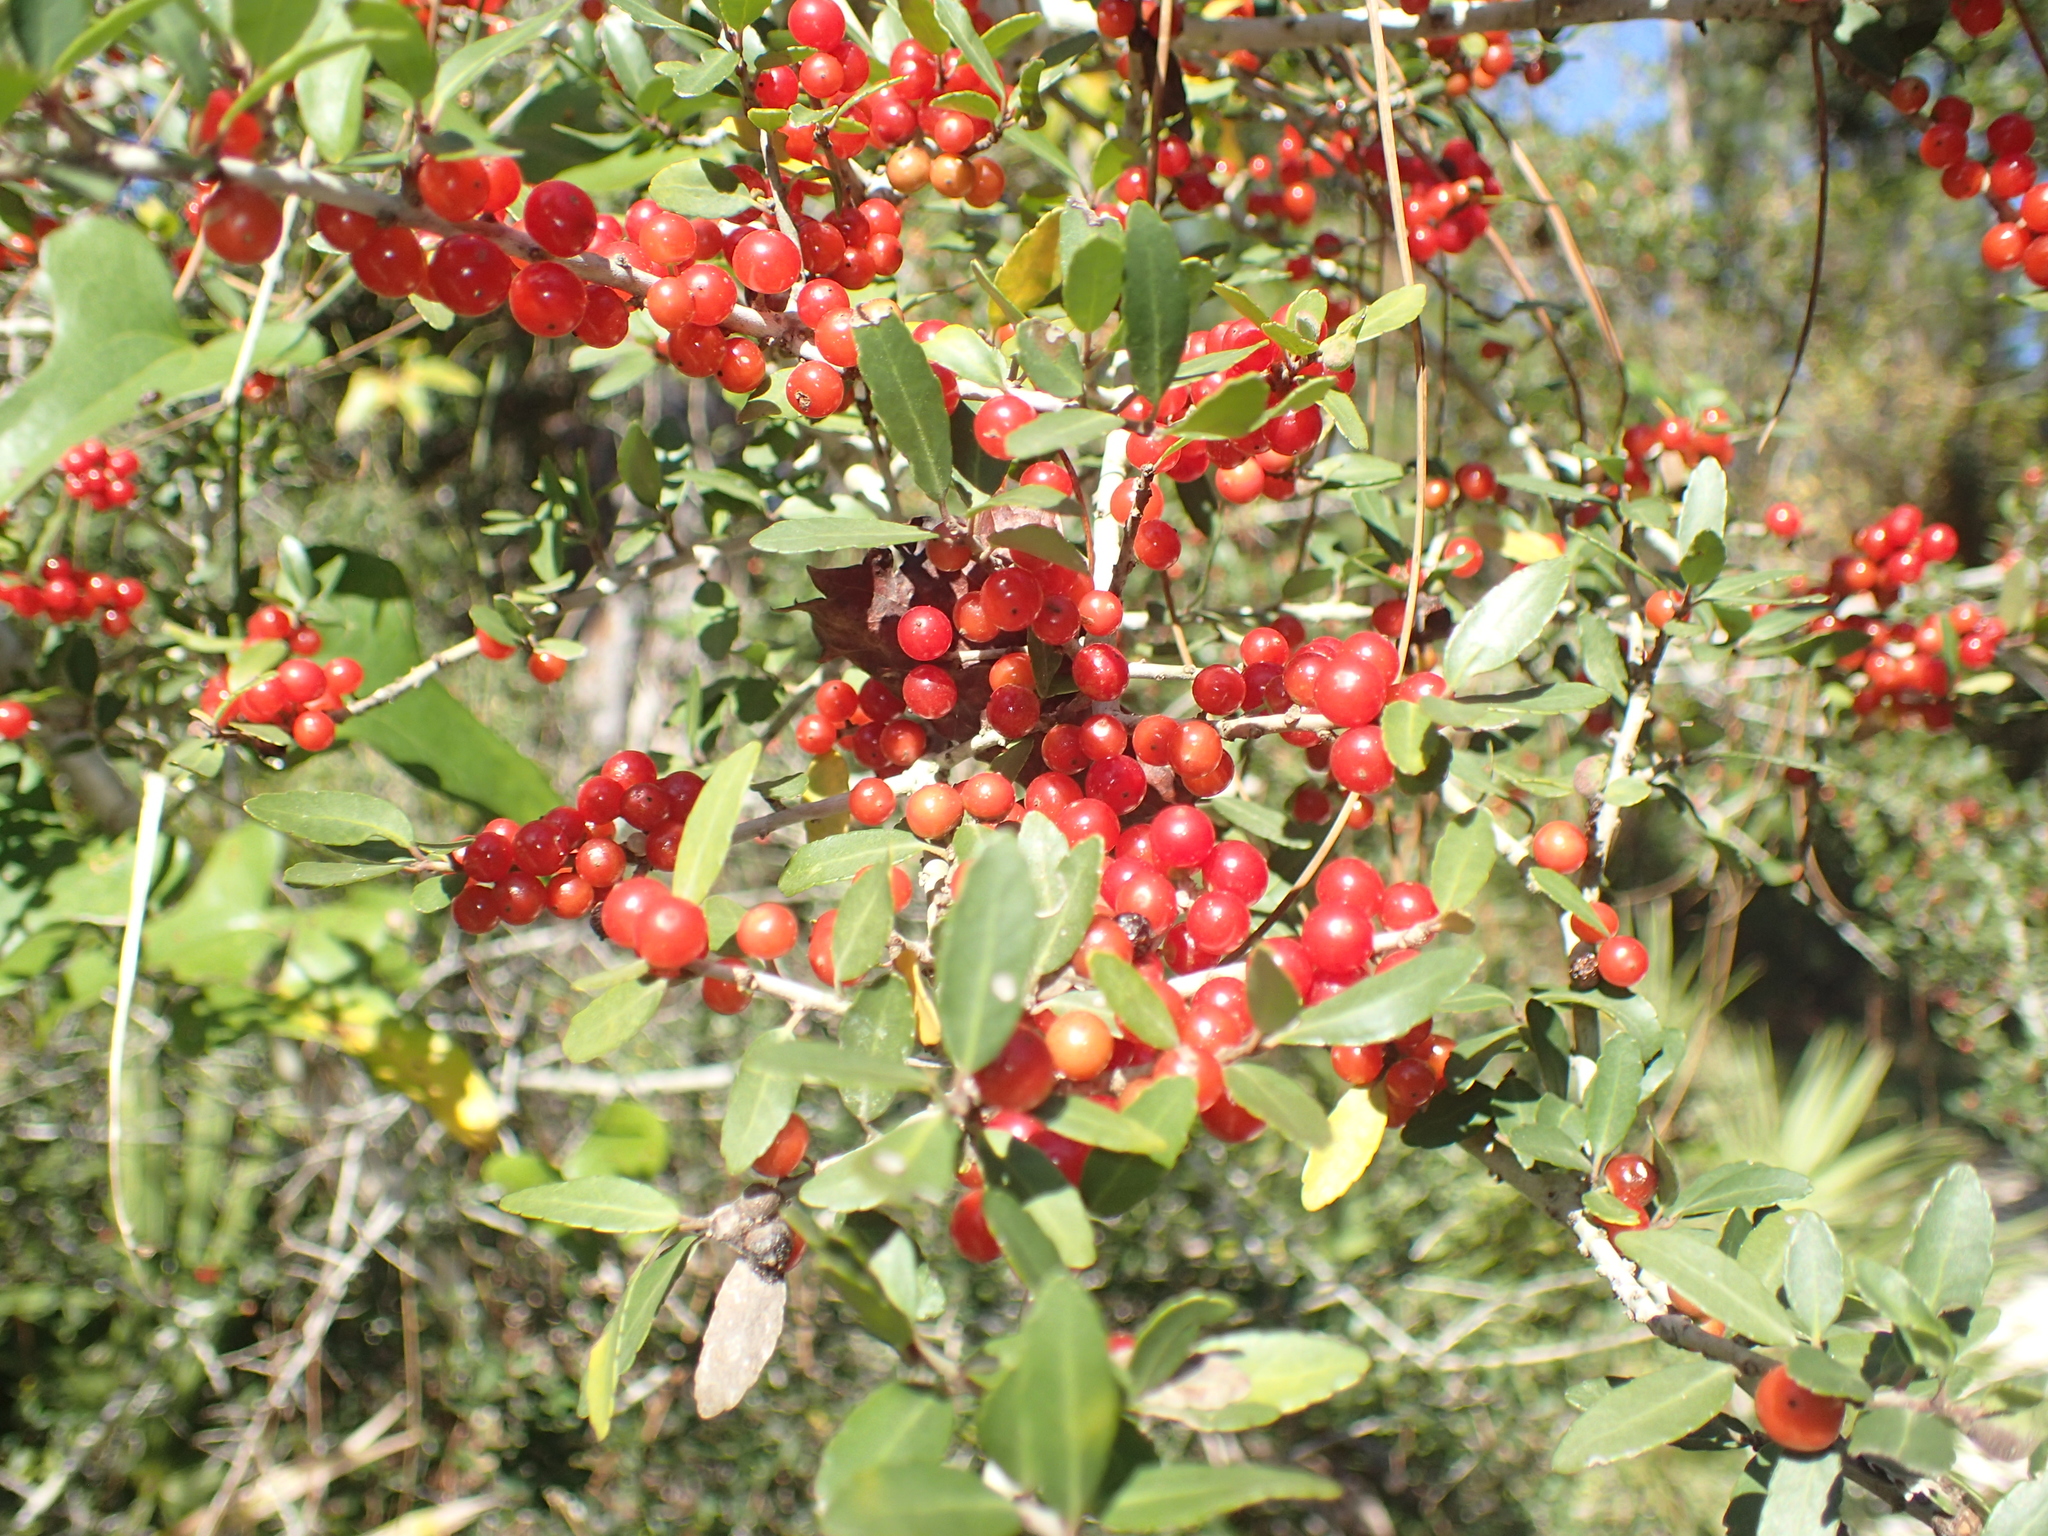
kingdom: Plantae
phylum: Tracheophyta
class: Magnoliopsida
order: Aquifoliales
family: Aquifoliaceae
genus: Ilex
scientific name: Ilex vomitoria
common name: Yaupon holly
